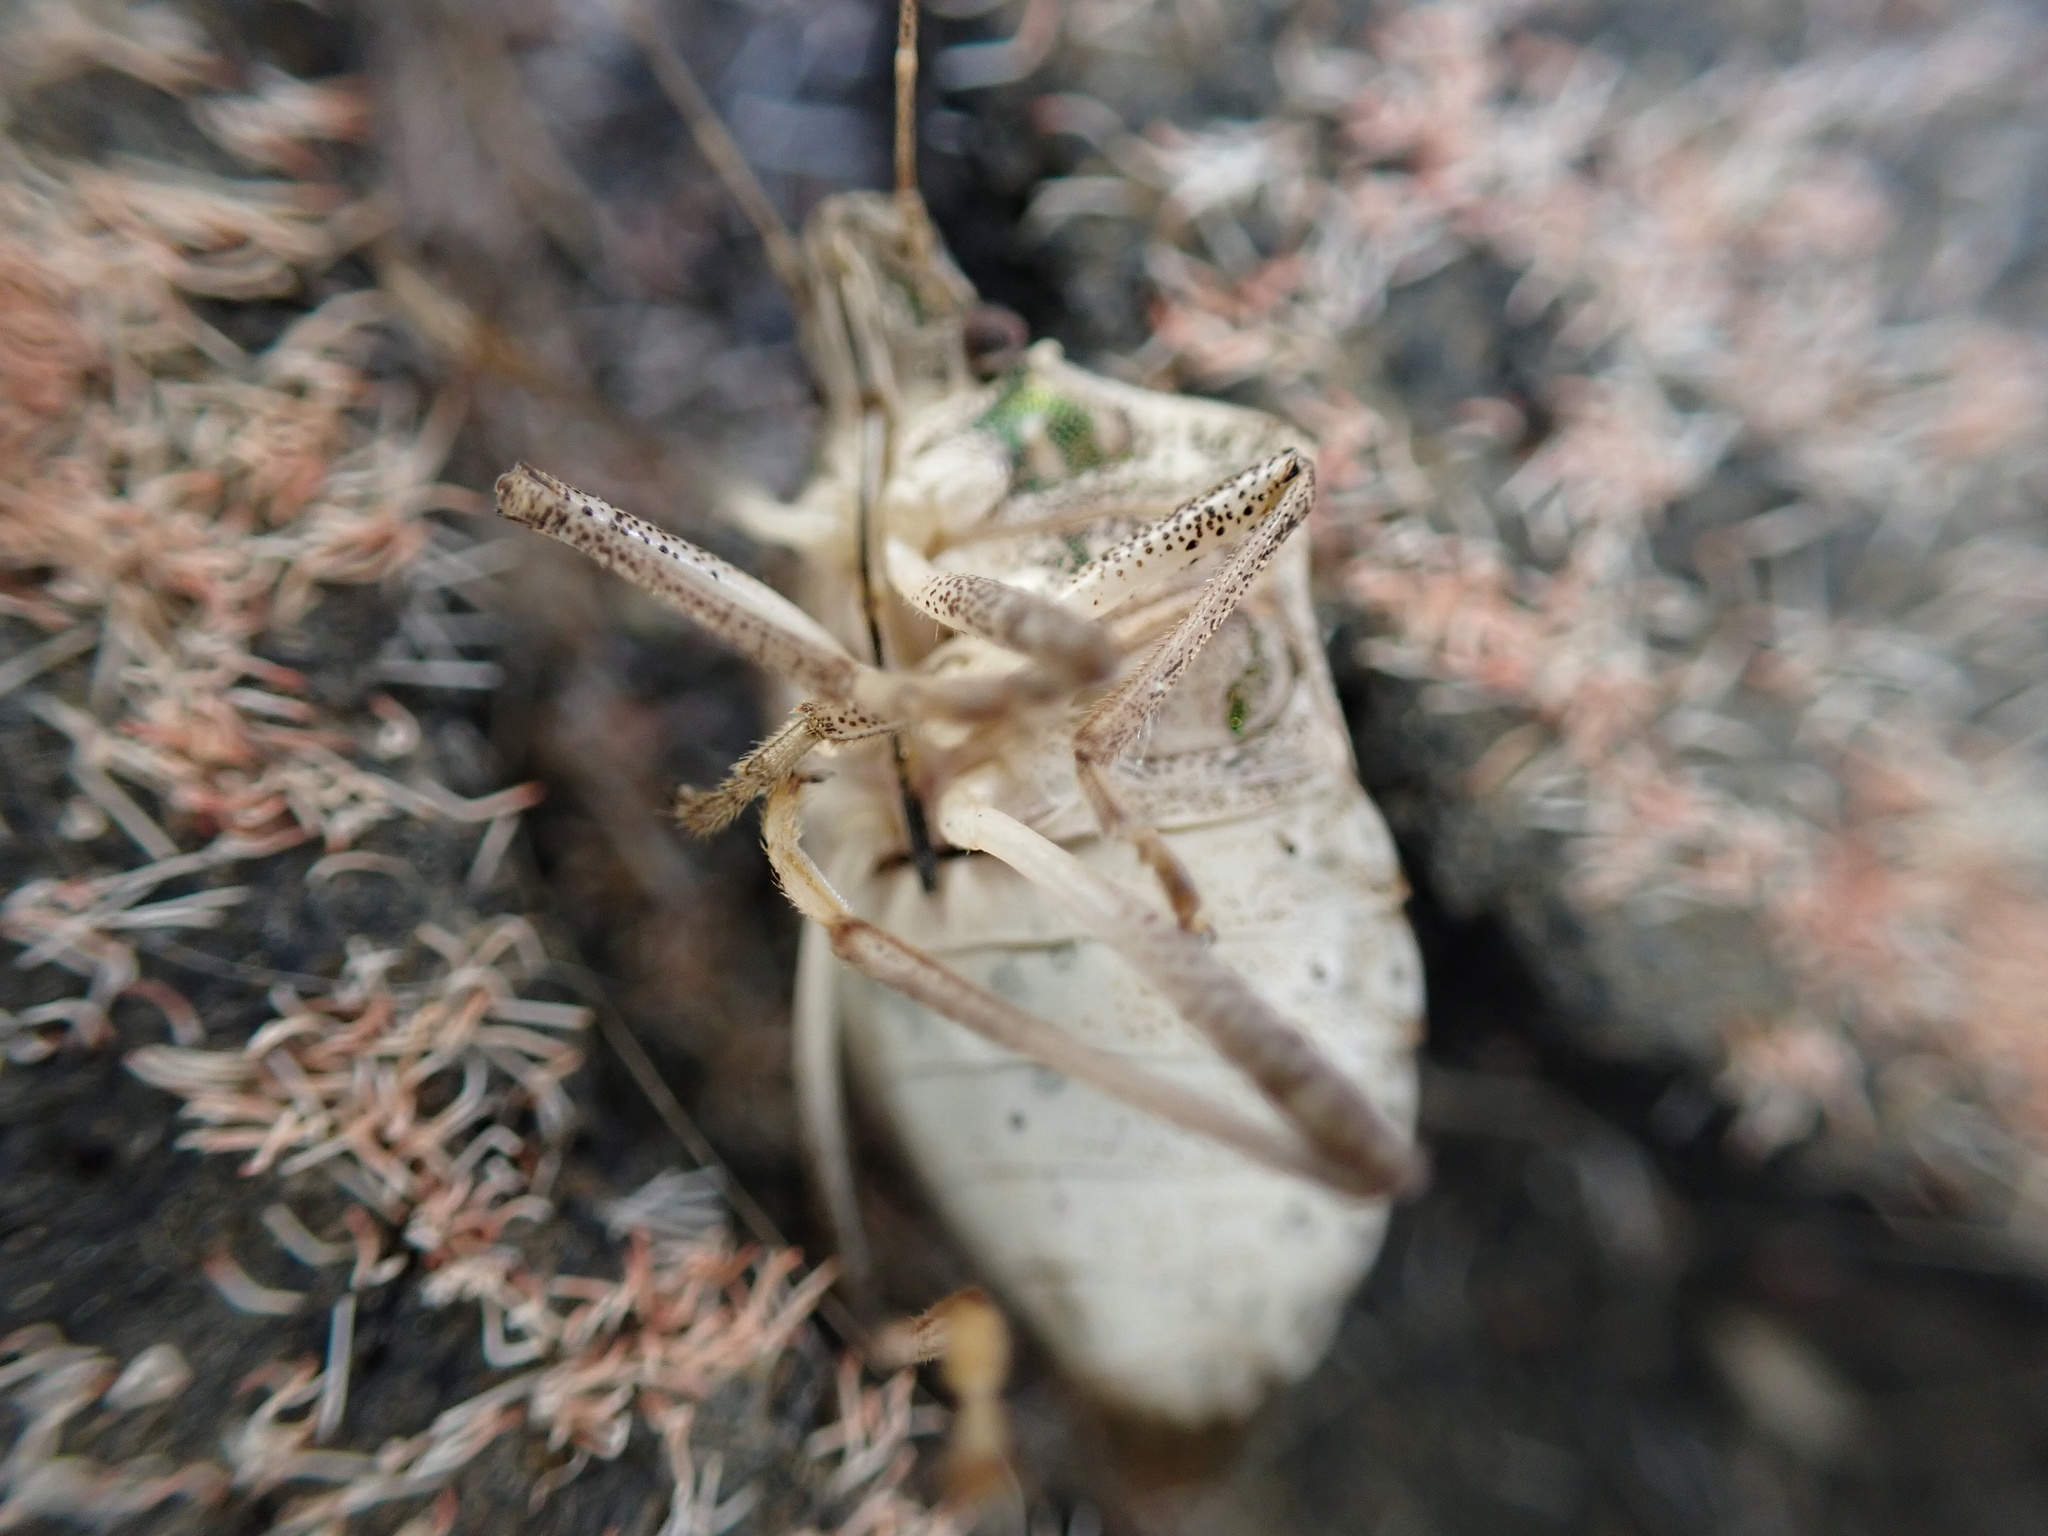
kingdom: Animalia
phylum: Arthropoda
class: Insecta
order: Hemiptera
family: Pentatomidae
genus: Halyomorpha
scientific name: Halyomorpha halys
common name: Brown marmorated stink bug
